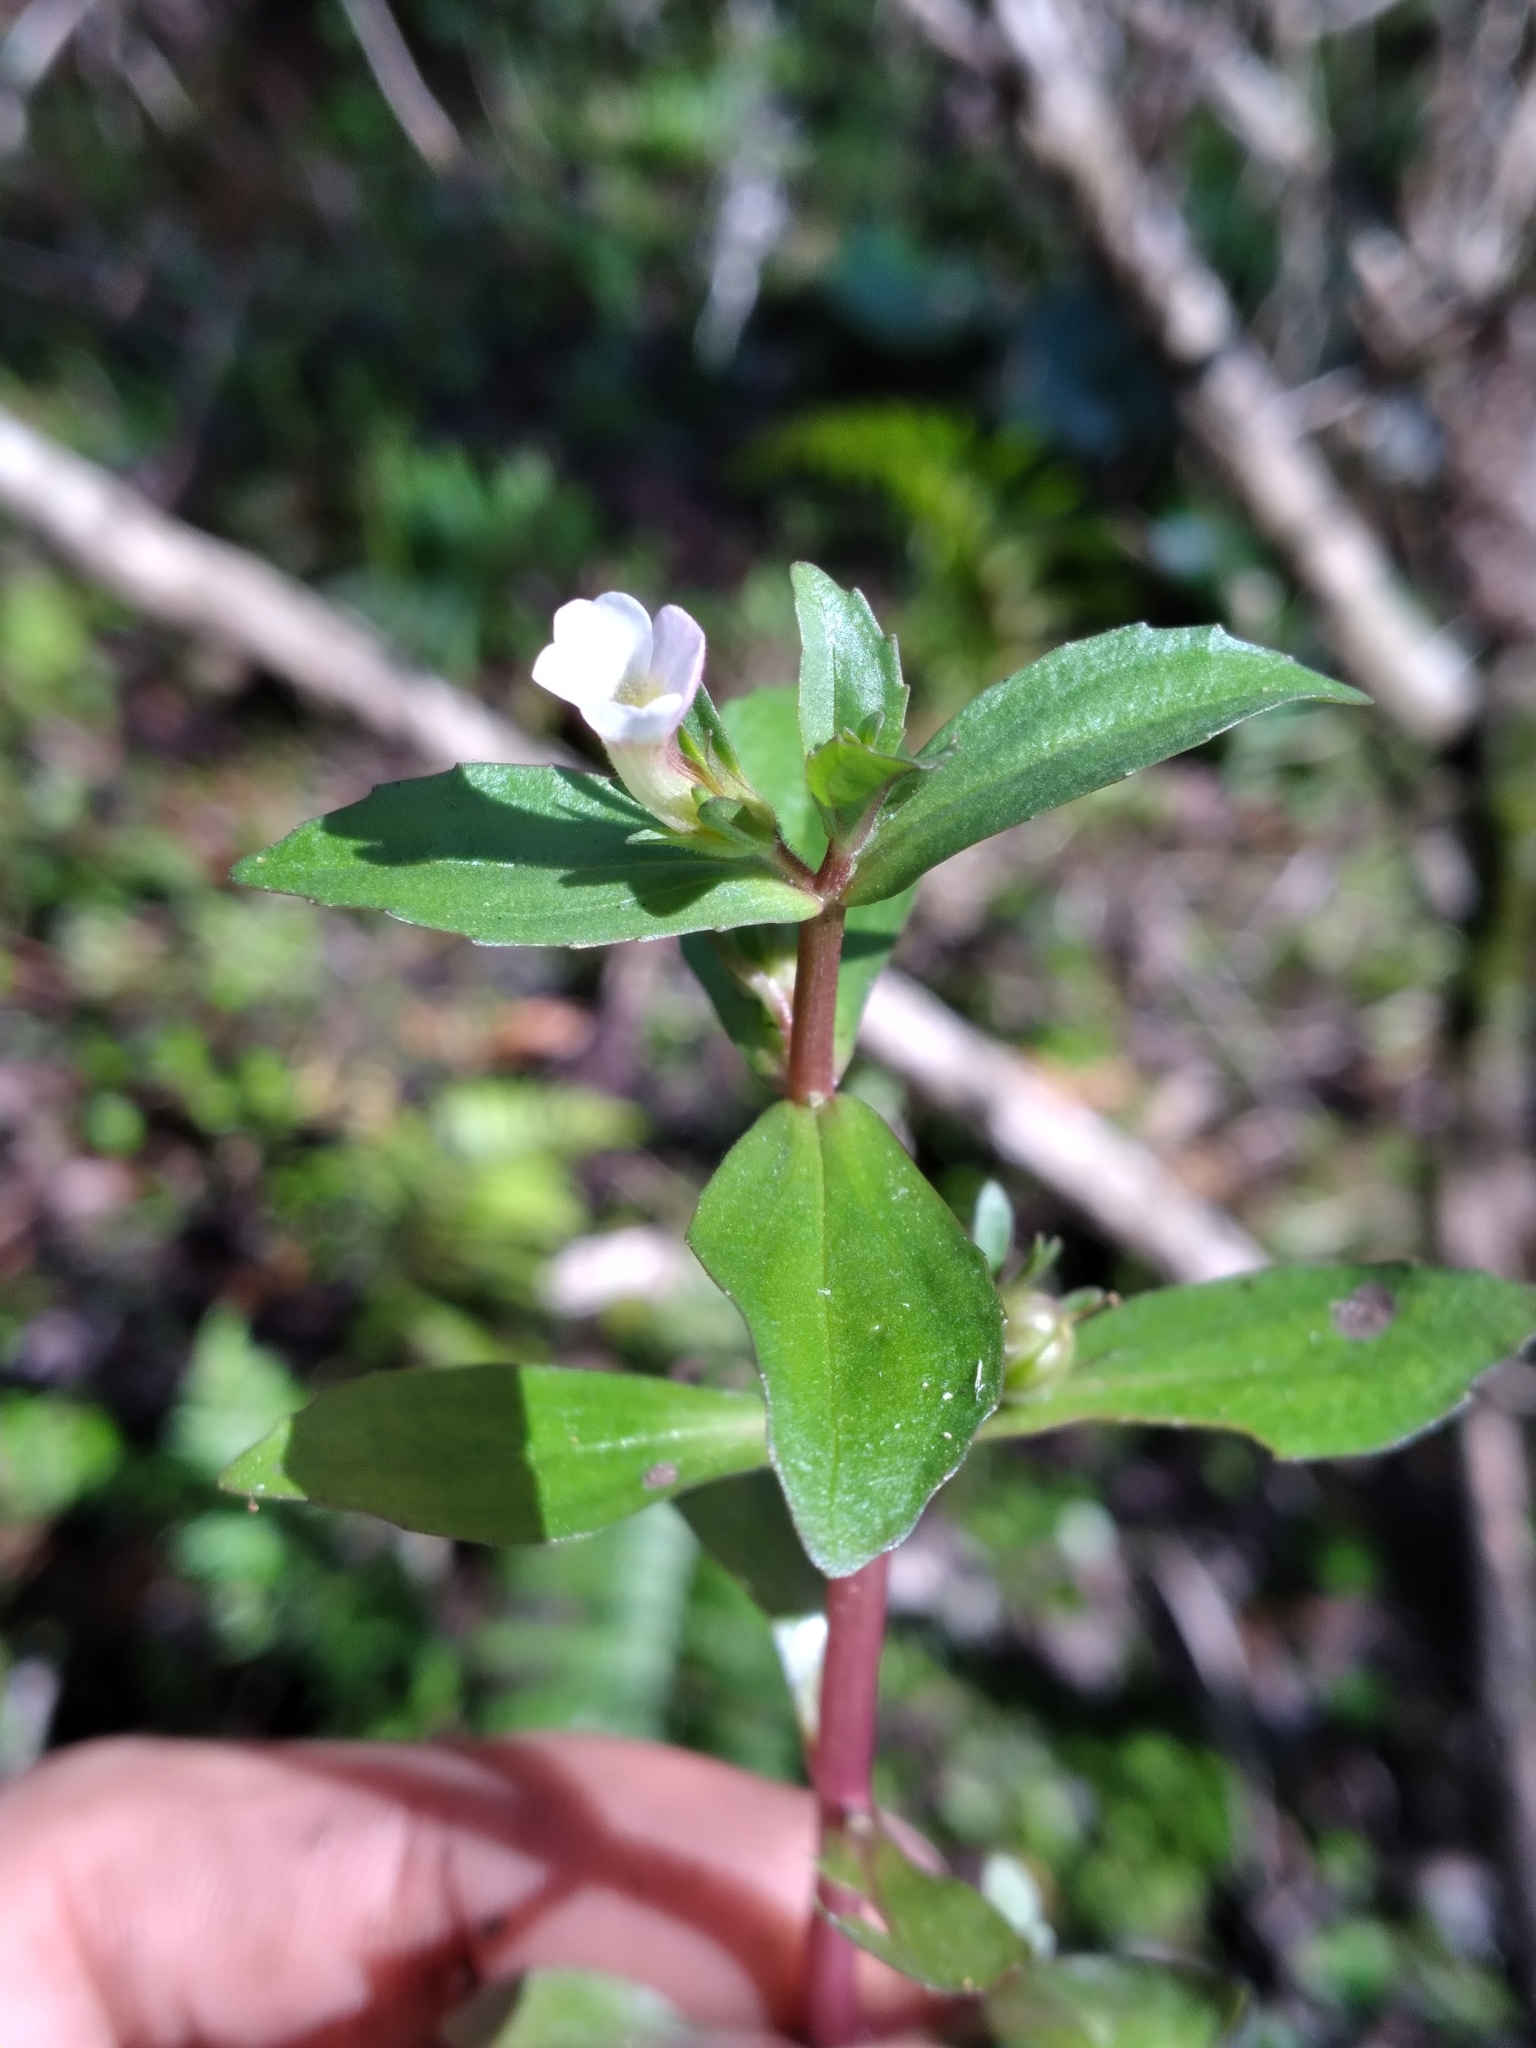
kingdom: Plantae
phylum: Tracheophyta
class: Magnoliopsida
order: Lamiales
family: Plantaginaceae
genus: Gratiola
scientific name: Gratiola virginiana
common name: Roundfruit hedgehyssop
